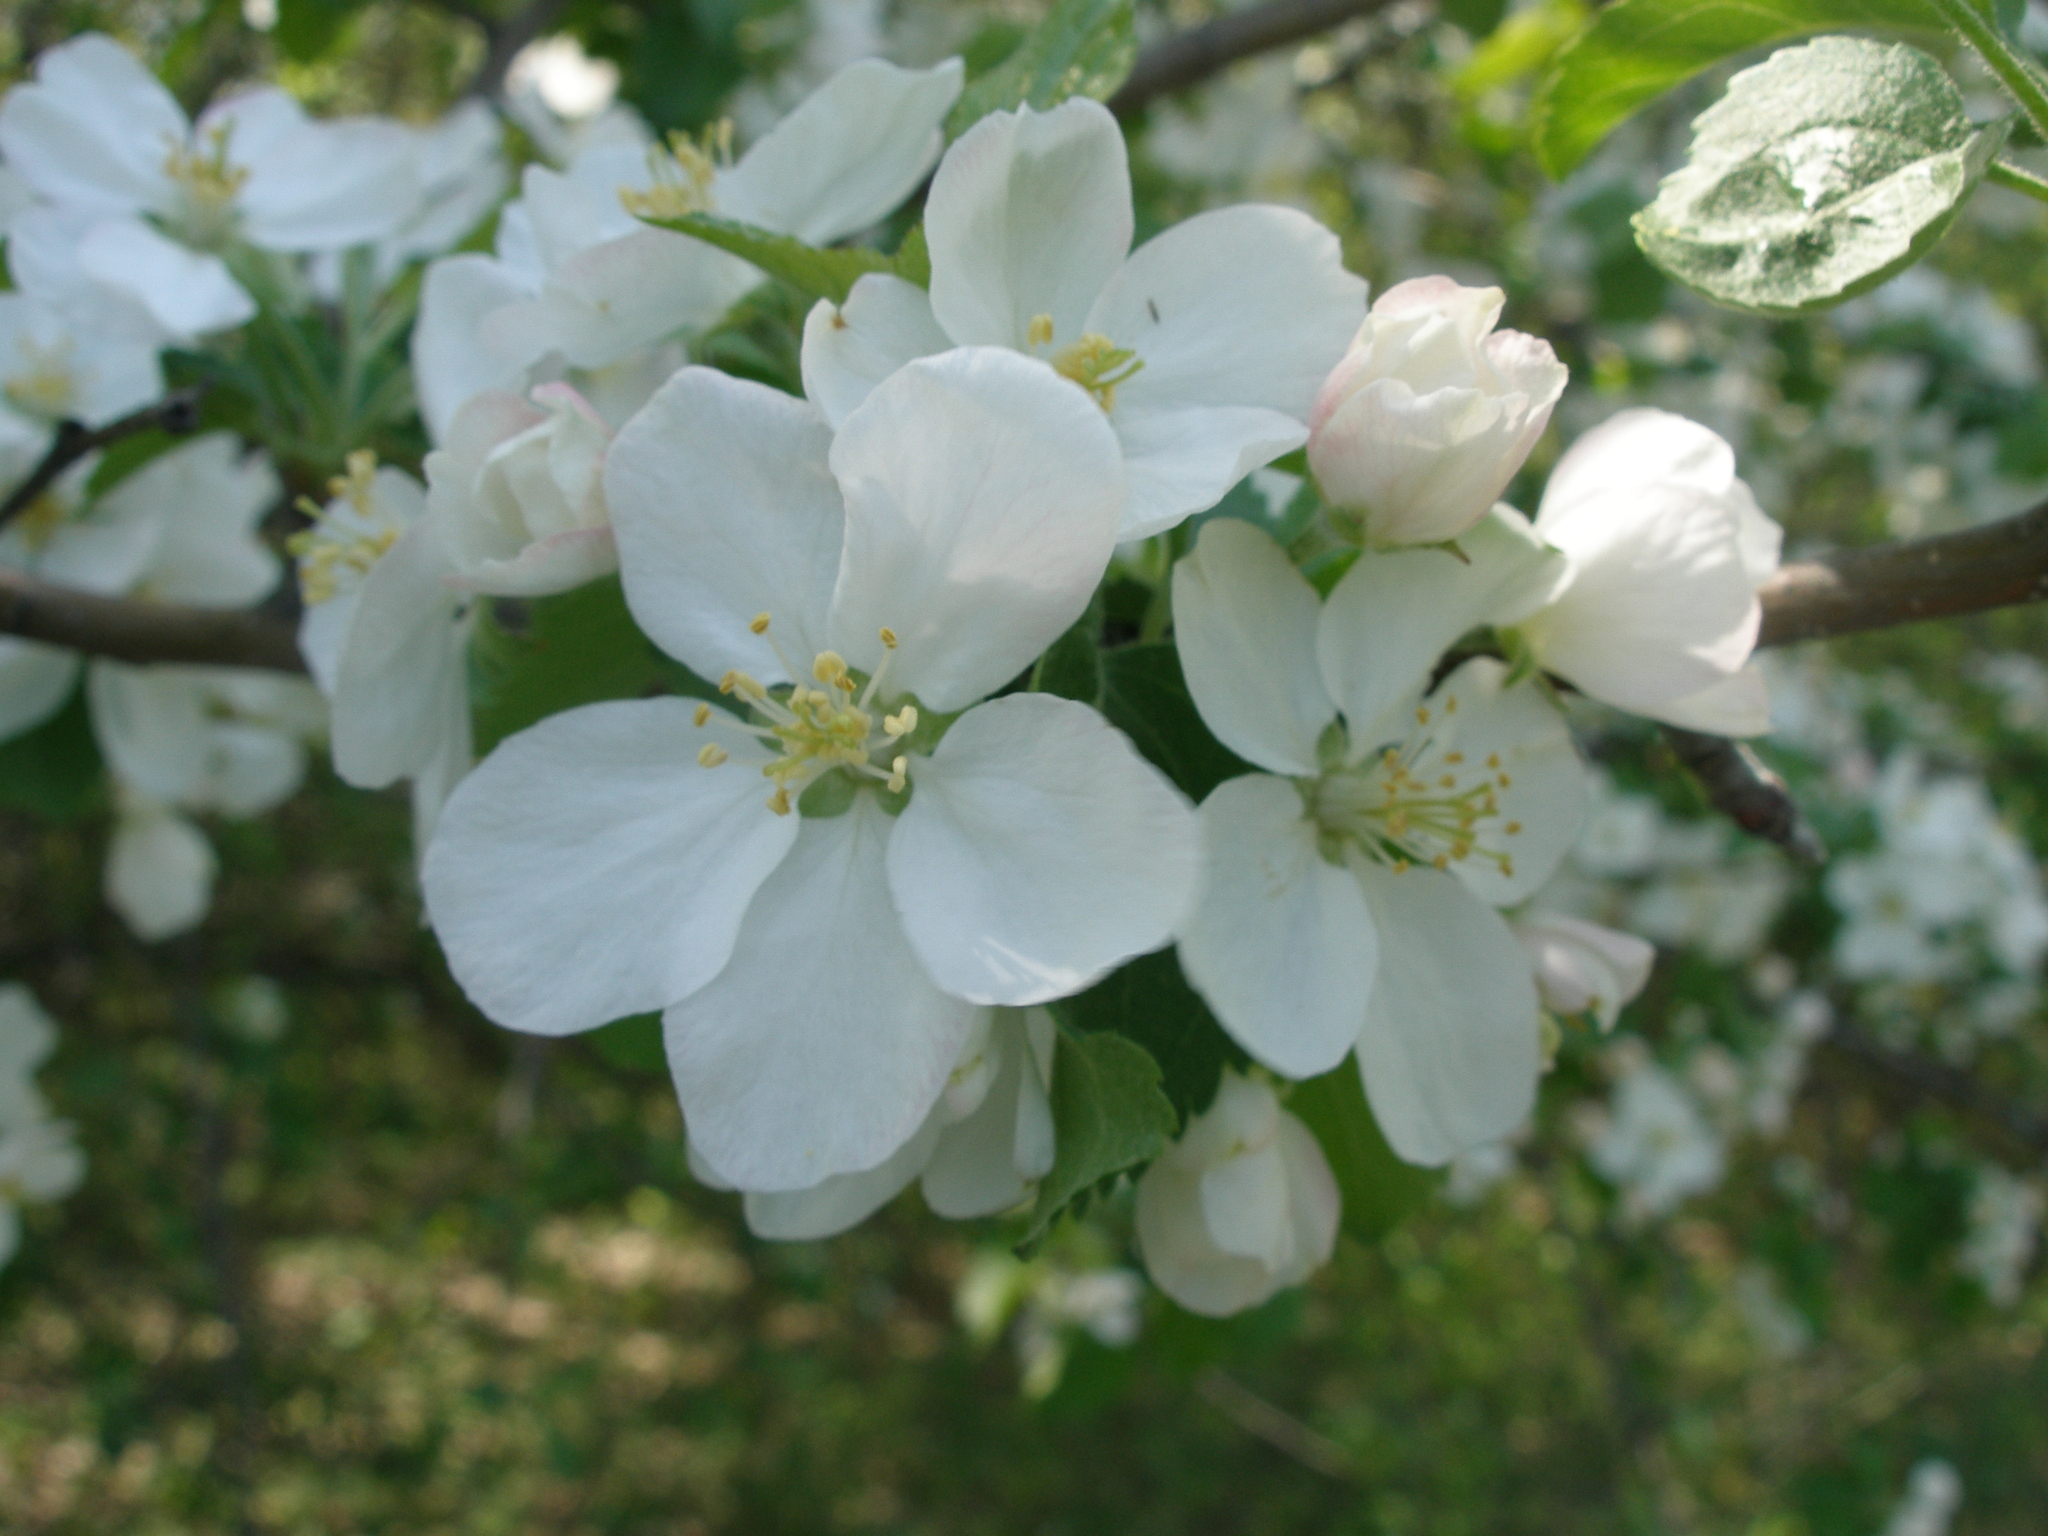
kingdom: Plantae
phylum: Tracheophyta
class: Magnoliopsida
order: Rosales
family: Rosaceae
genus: Malus
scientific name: Malus domestica
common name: Apple
